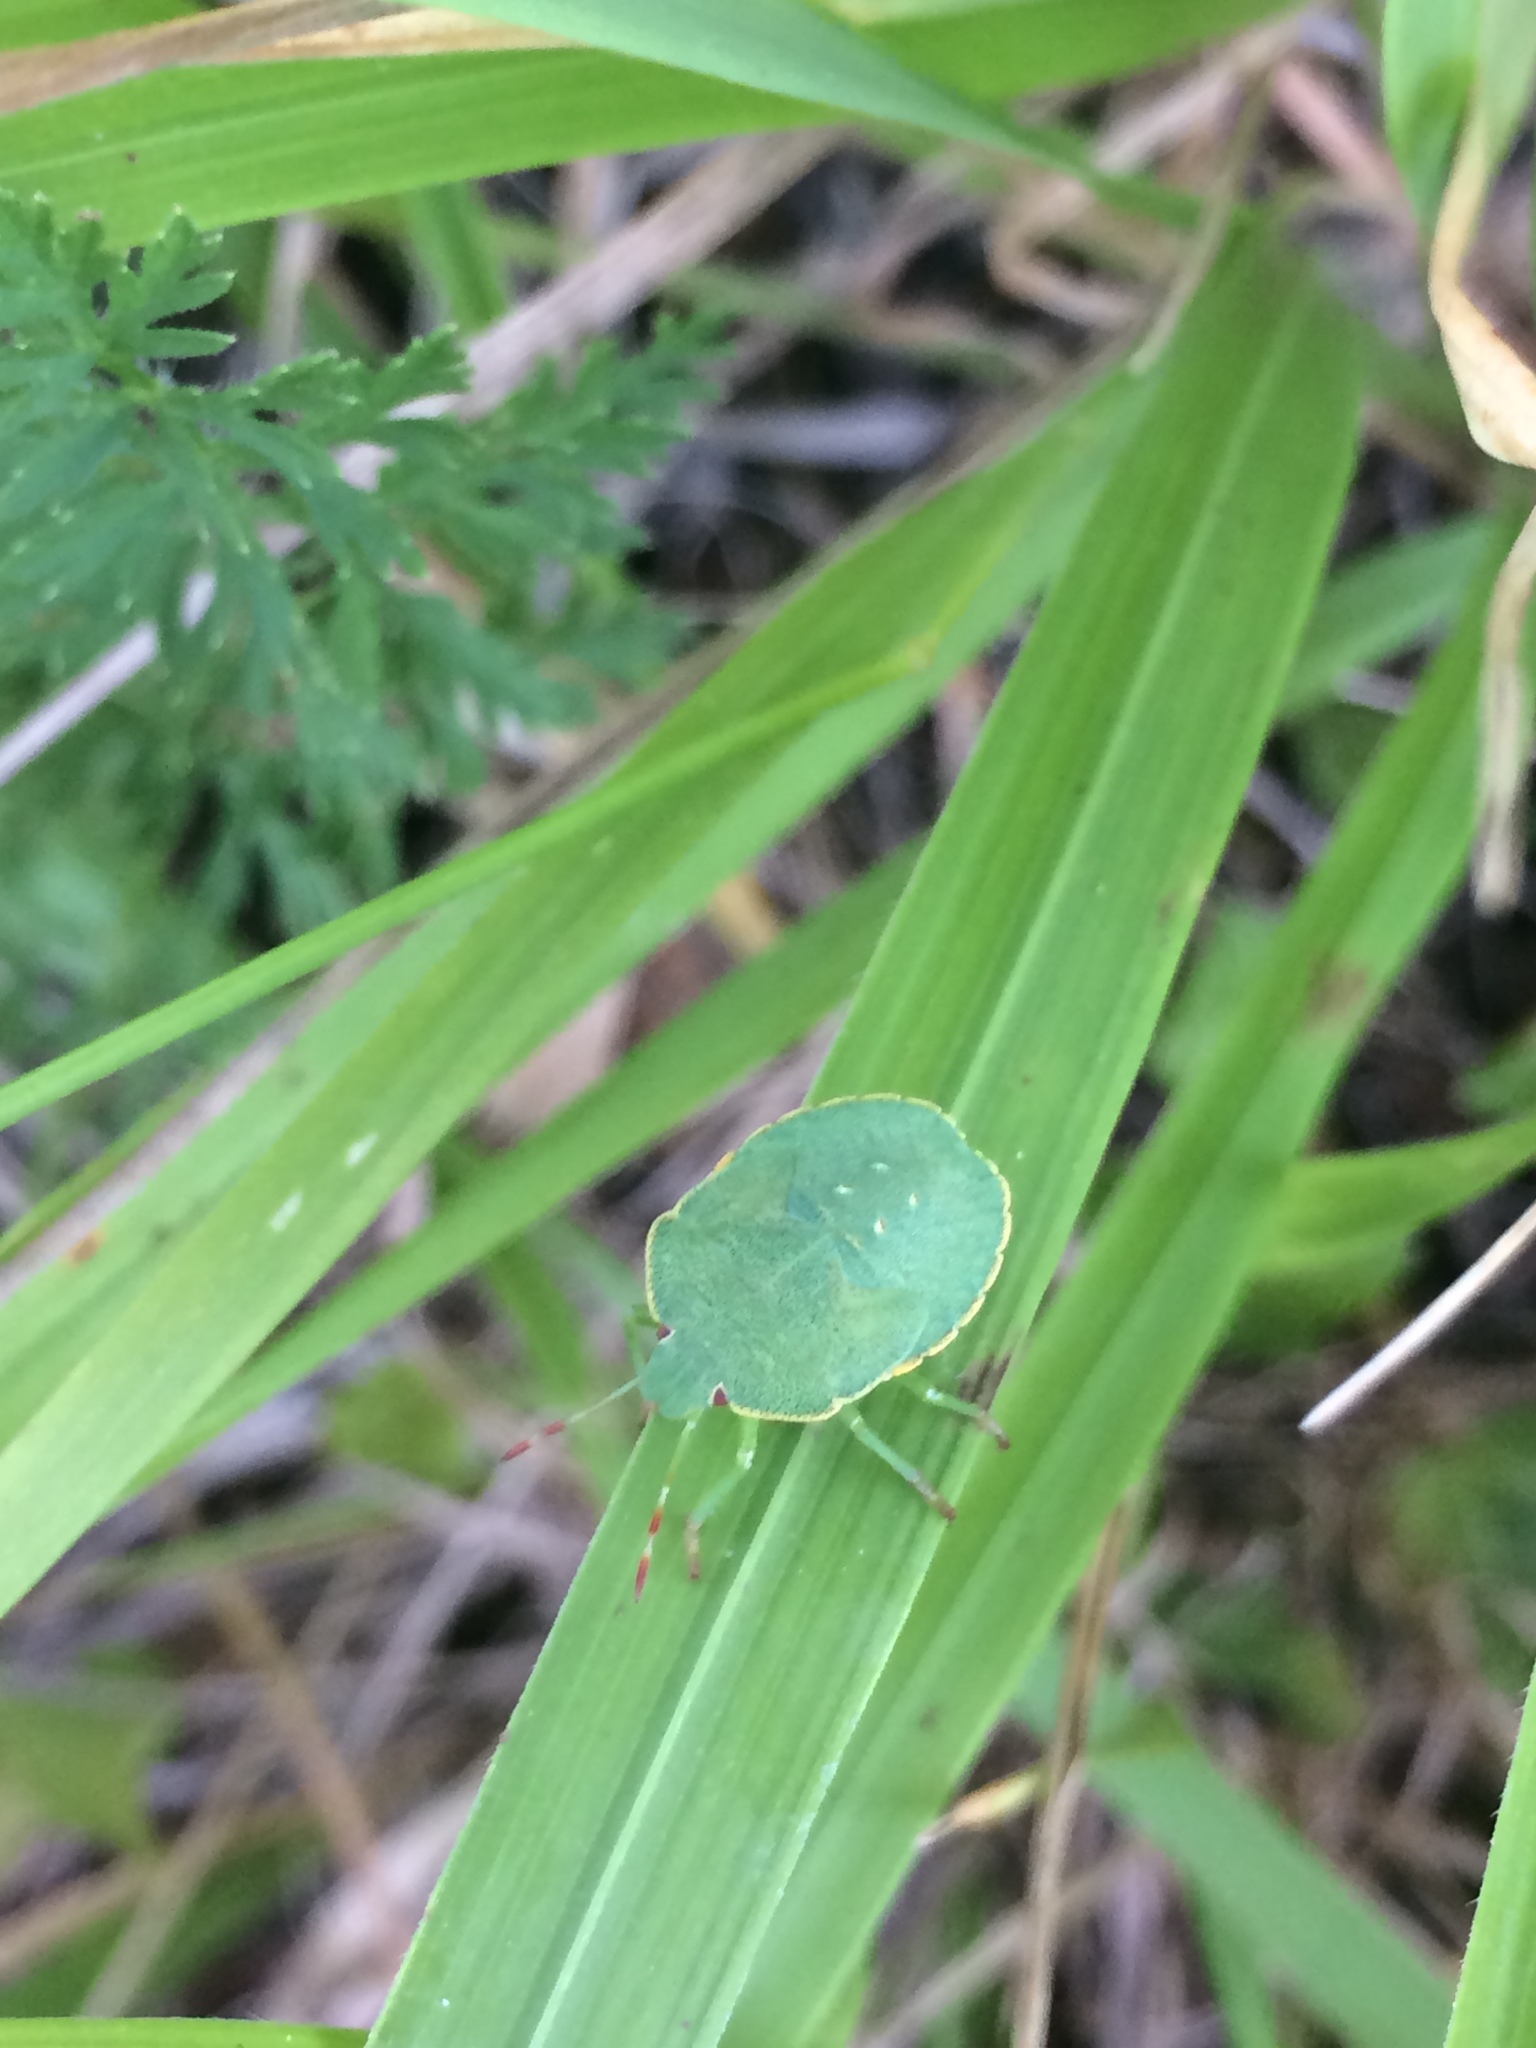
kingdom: Animalia
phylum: Arthropoda
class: Insecta
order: Hemiptera
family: Pentatomidae
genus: Palomena
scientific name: Palomena prasina
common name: Green shieldbug
